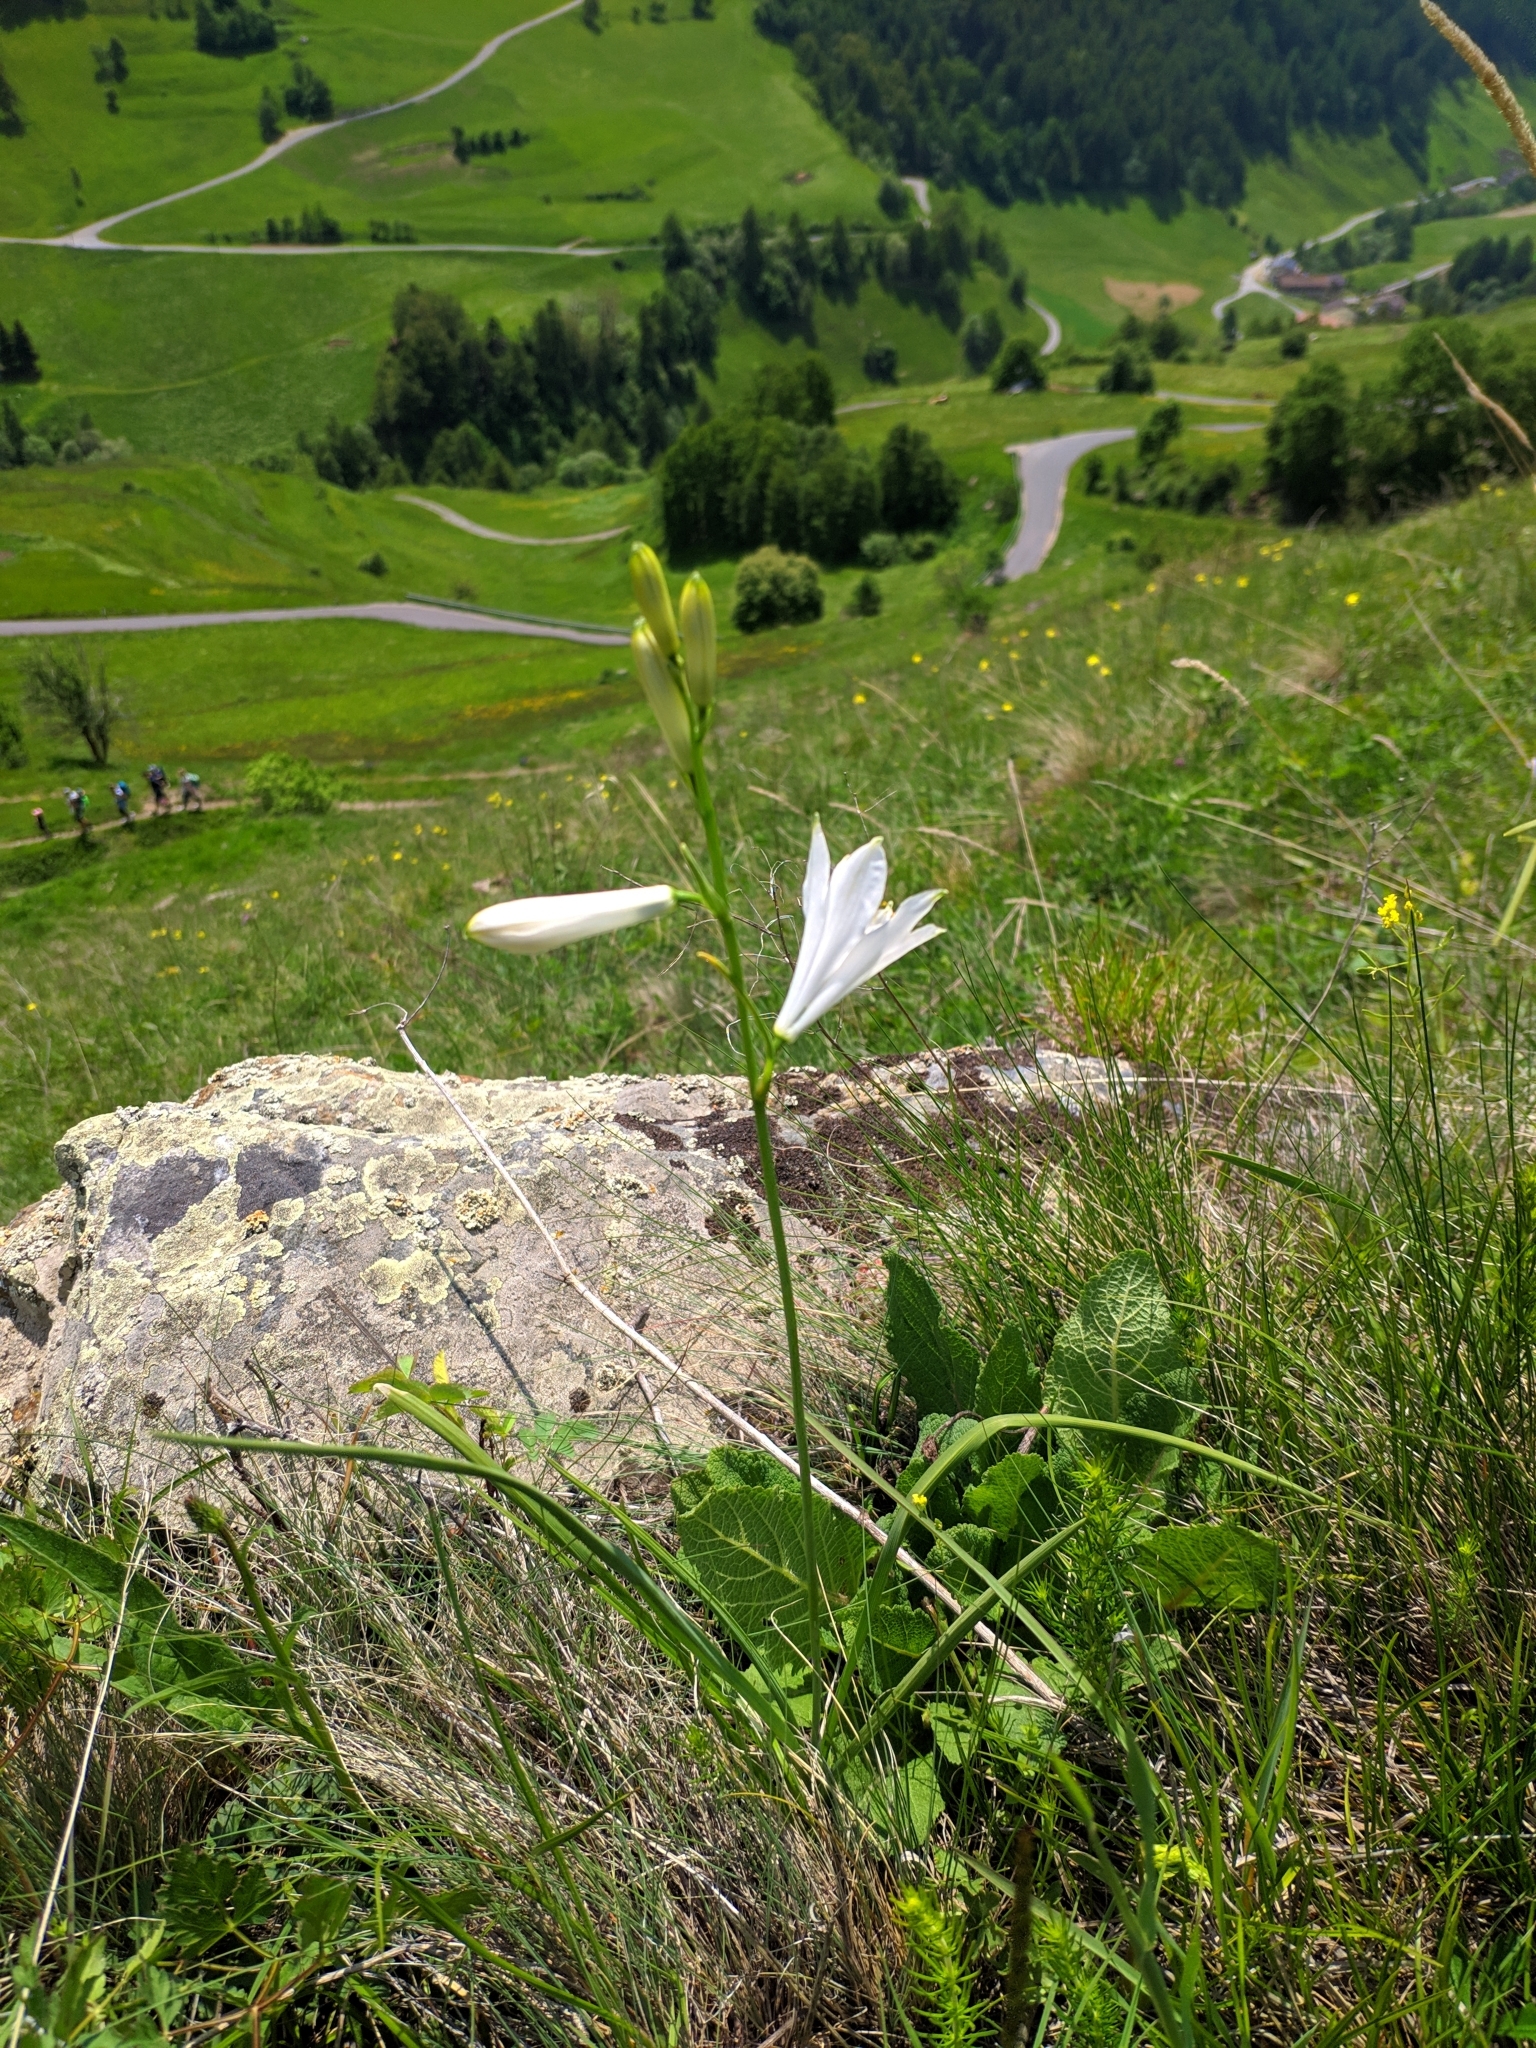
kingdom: Plantae
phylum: Tracheophyta
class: Liliopsida
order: Asparagales
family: Asparagaceae
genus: Paradisea
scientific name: Paradisea liliastrum
